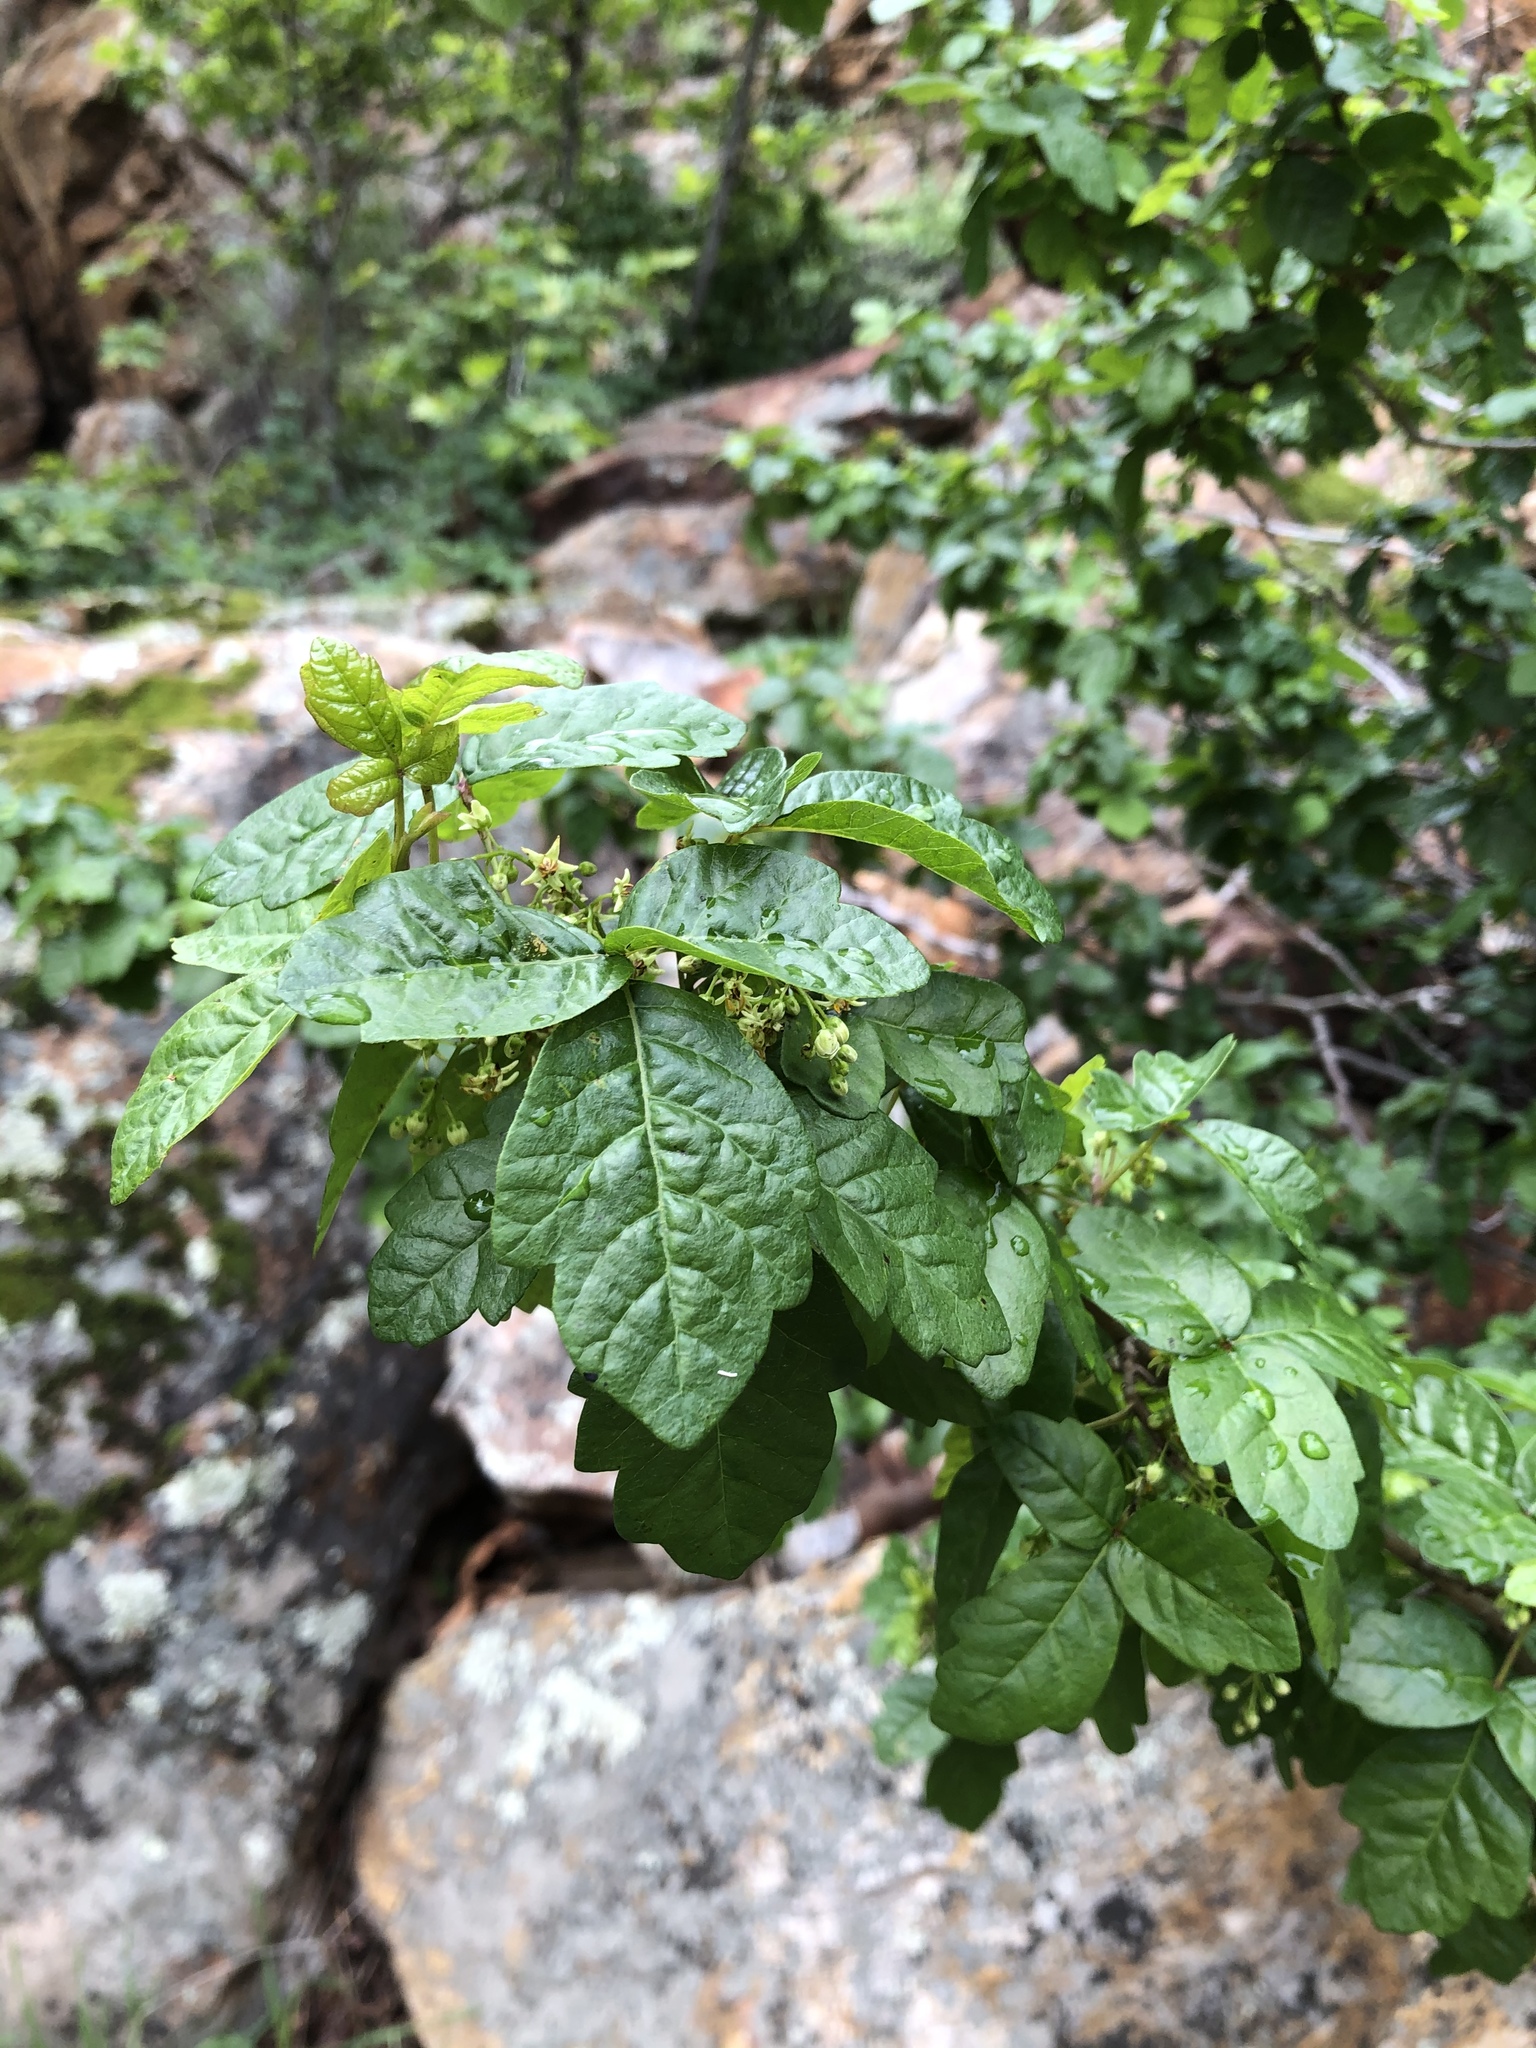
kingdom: Plantae
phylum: Tracheophyta
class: Magnoliopsida
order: Sapindales
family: Anacardiaceae
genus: Toxicodendron
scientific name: Toxicodendron diversilobum
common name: Pacific poison-oak
